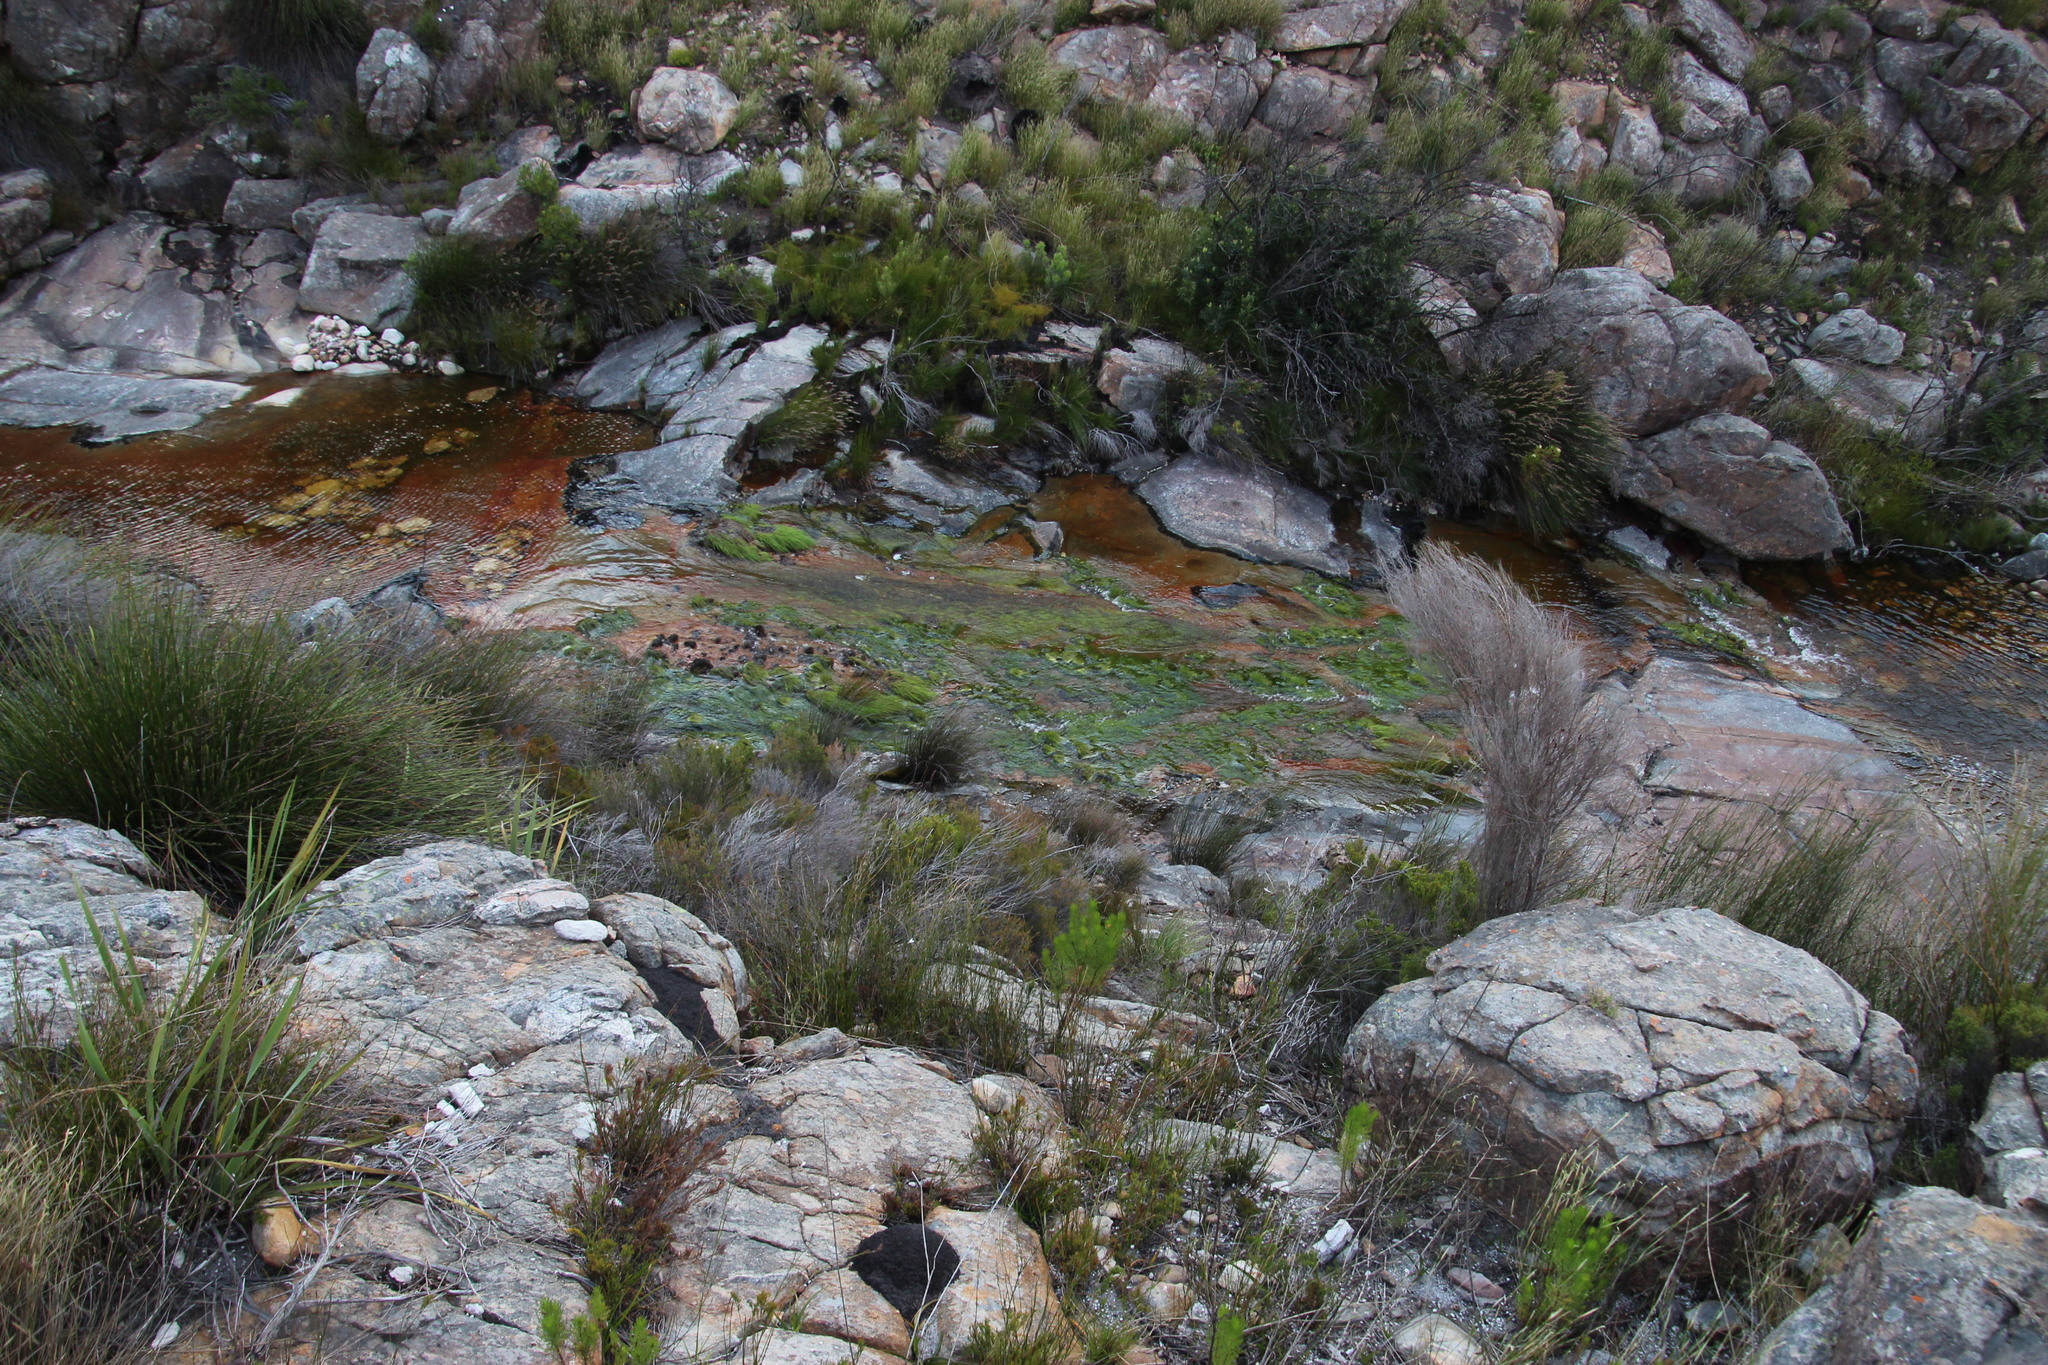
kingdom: Plantae
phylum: Tracheophyta
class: Liliopsida
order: Poales
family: Cyperaceae
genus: Isolepis
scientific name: Isolepis digitata
